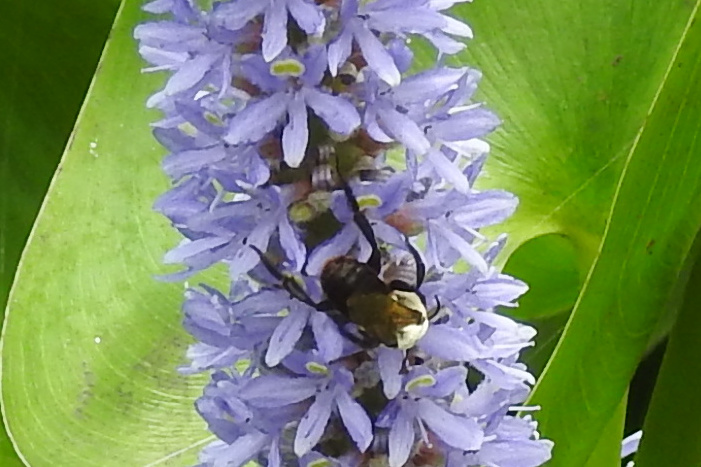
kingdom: Animalia
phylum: Arthropoda
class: Insecta
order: Hymenoptera
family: Apidae
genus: Ptilothrix
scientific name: Ptilothrix bombiformis
